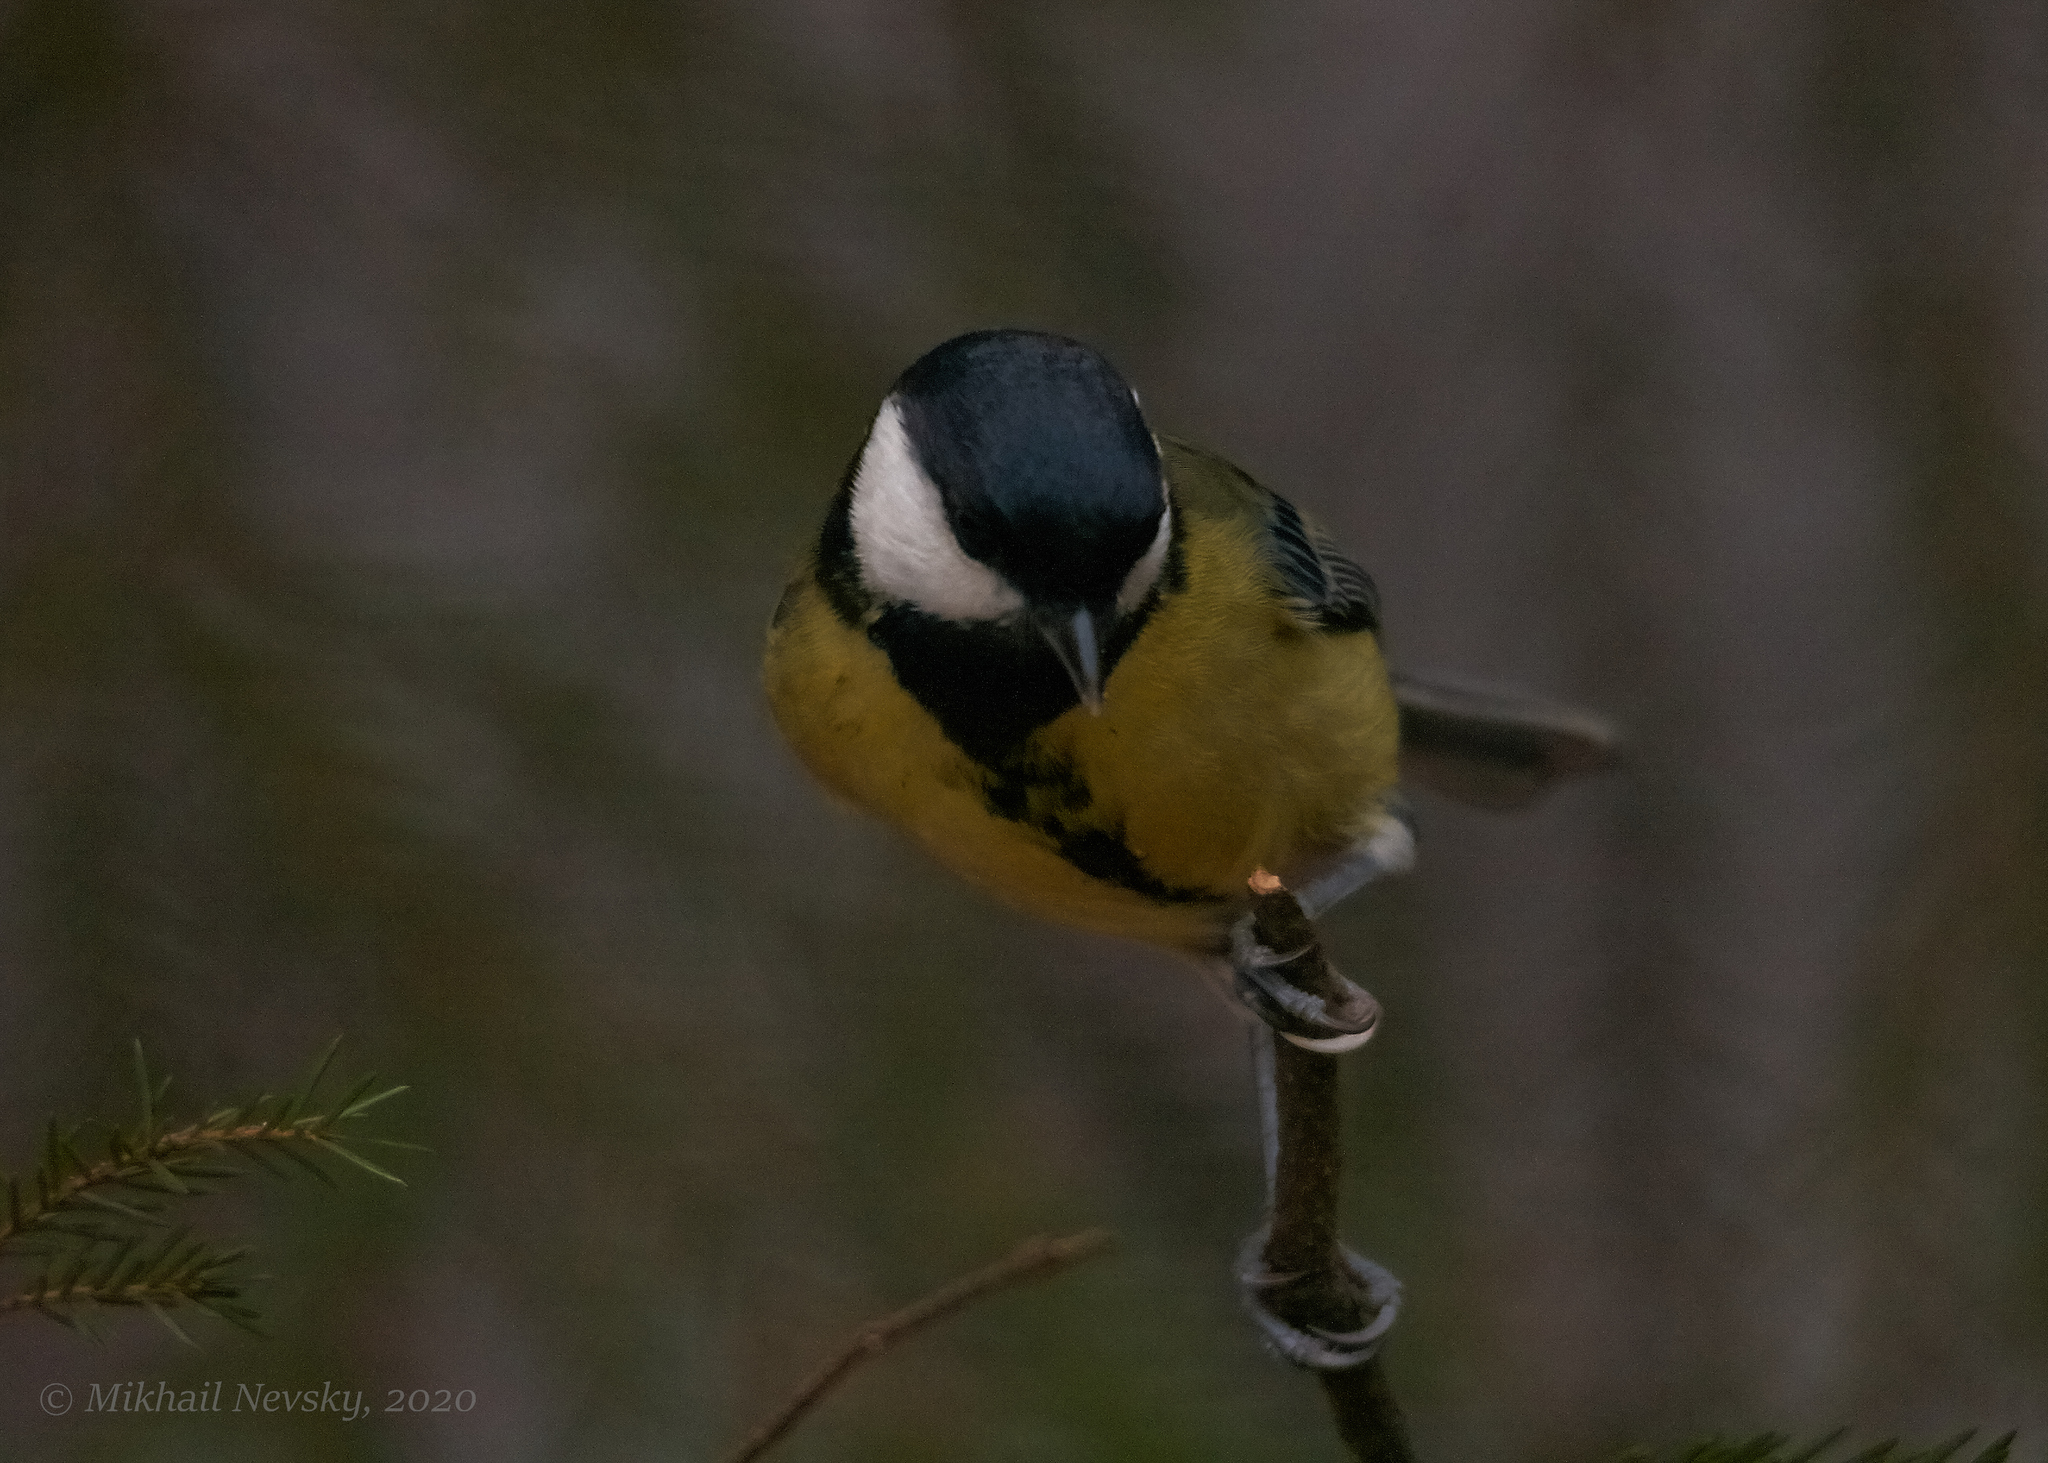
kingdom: Animalia
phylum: Chordata
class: Aves
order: Passeriformes
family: Paridae
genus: Parus
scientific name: Parus major
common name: Great tit
